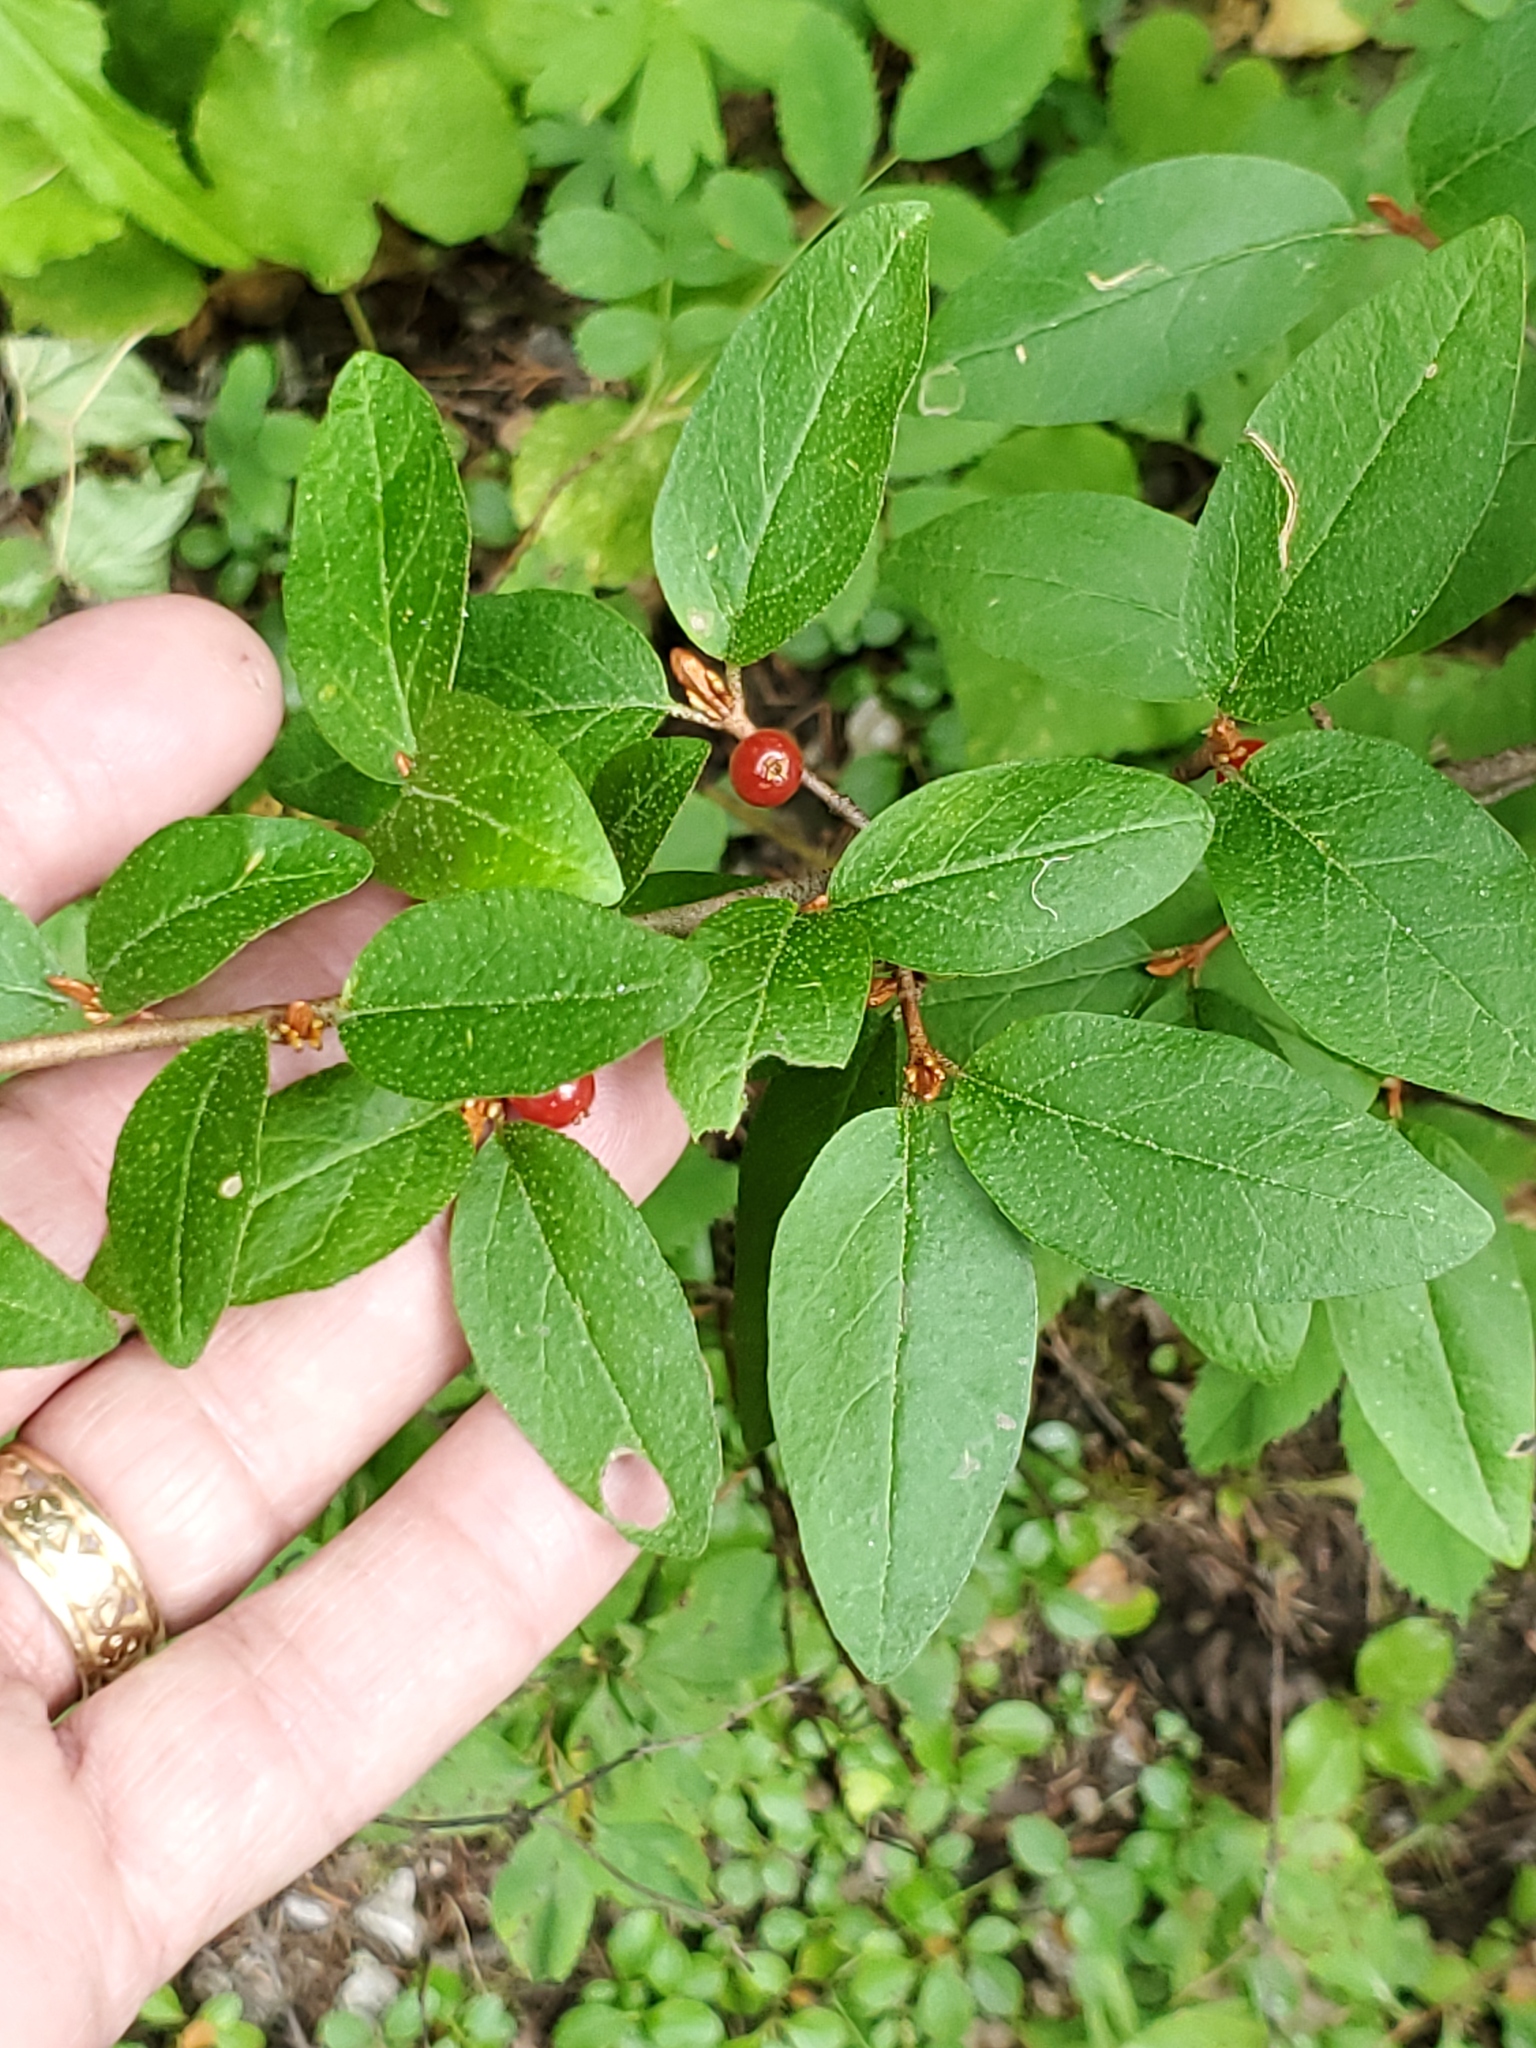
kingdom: Plantae
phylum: Tracheophyta
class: Magnoliopsida
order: Rosales
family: Elaeagnaceae
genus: Shepherdia
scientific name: Shepherdia canadensis
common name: Soapberry
